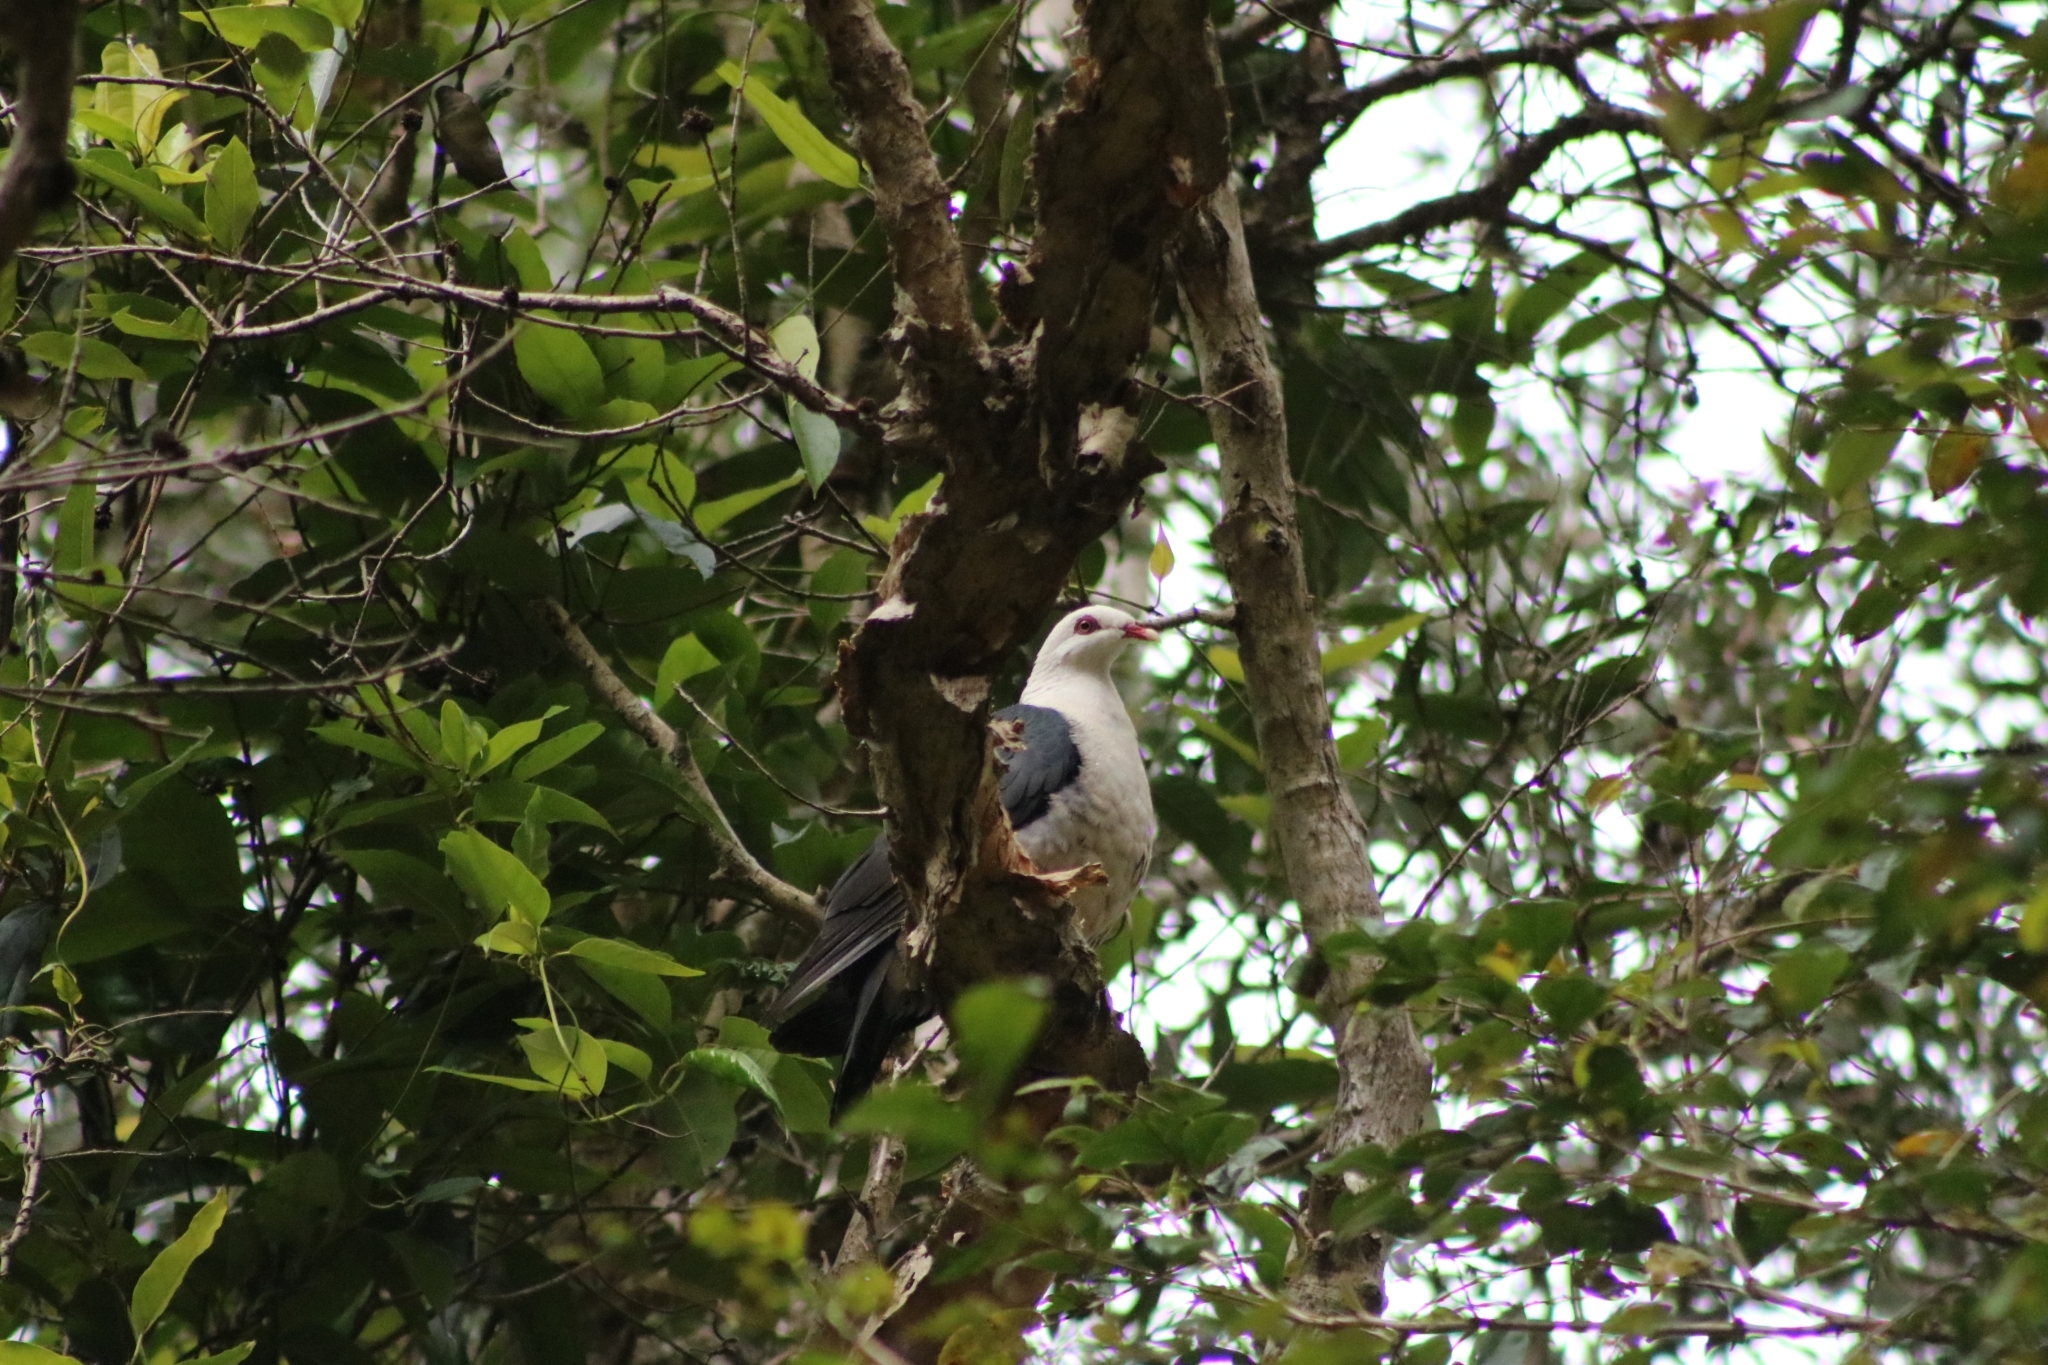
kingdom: Animalia
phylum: Chordata
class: Aves
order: Columbiformes
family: Columbidae
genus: Columba
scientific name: Columba leucomela
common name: White-headed pigeon
